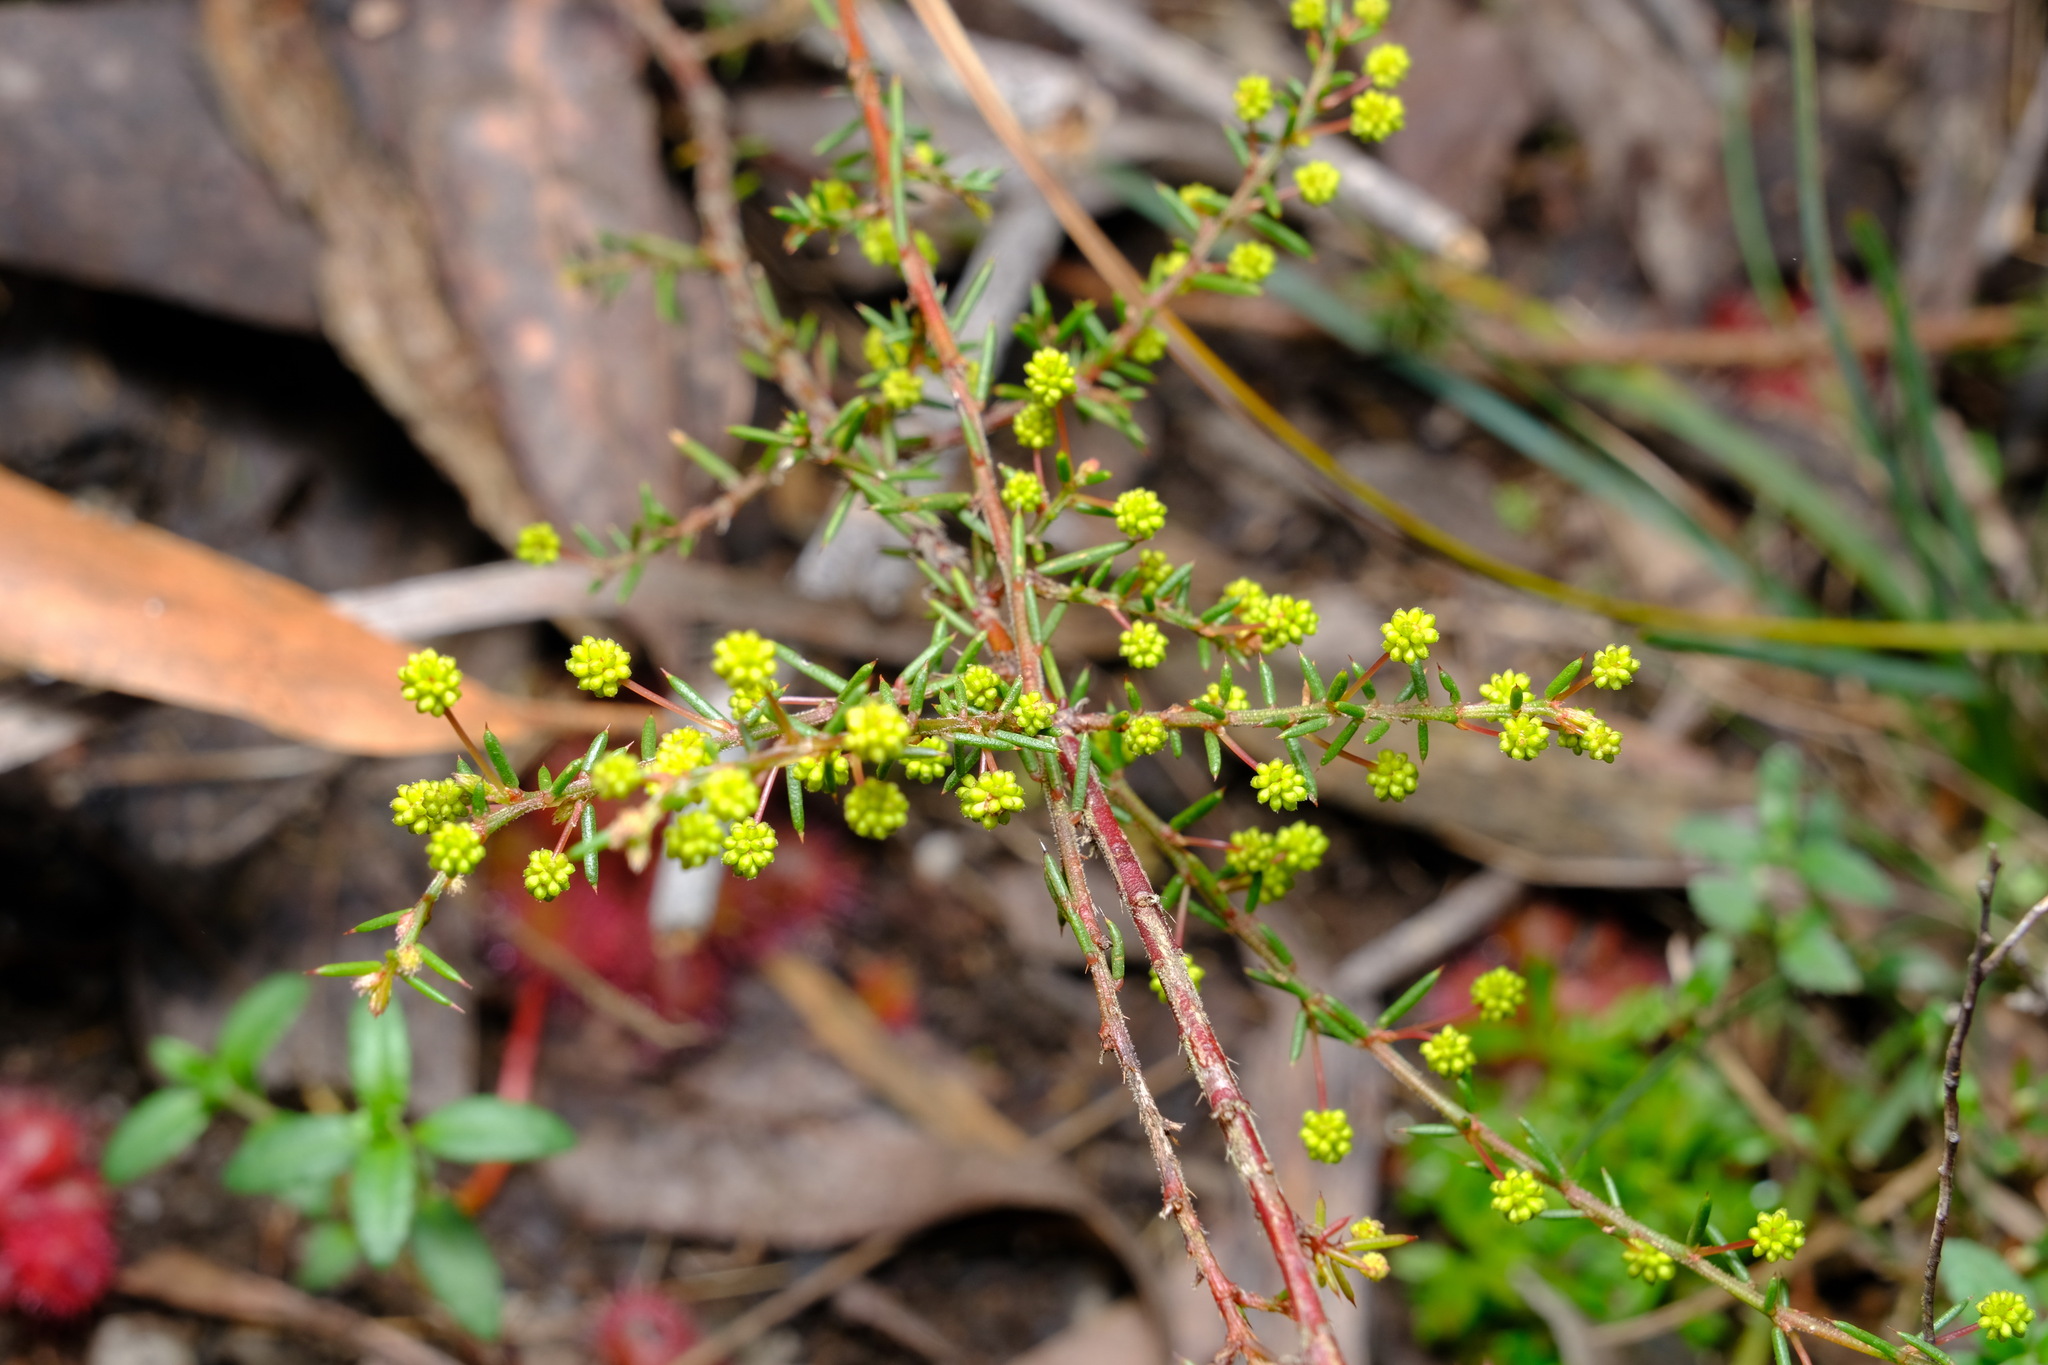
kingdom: Plantae
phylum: Tracheophyta
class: Magnoliopsida
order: Fabales
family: Fabaceae
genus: Acacia
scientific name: Acacia aculeatissima
